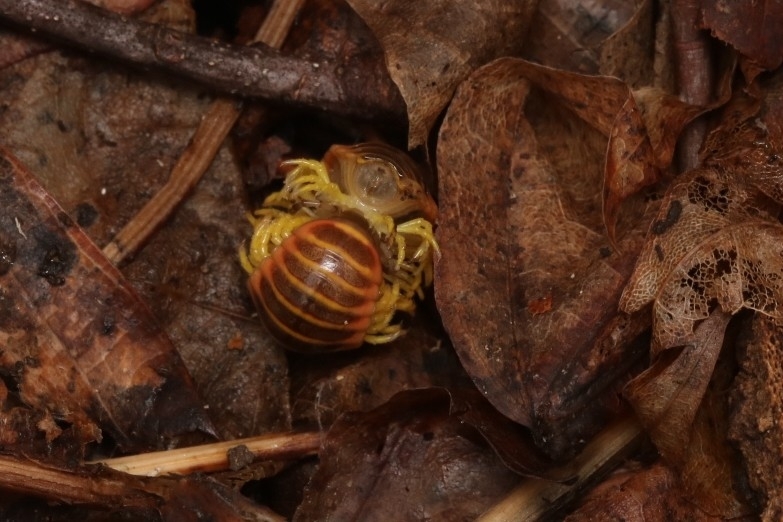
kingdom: Animalia
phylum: Arthropoda
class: Diplopoda
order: Polydesmida
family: Xystodesmidae
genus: Apheloria
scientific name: Apheloria virginiensis
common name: Black-and-gold flat millipede
